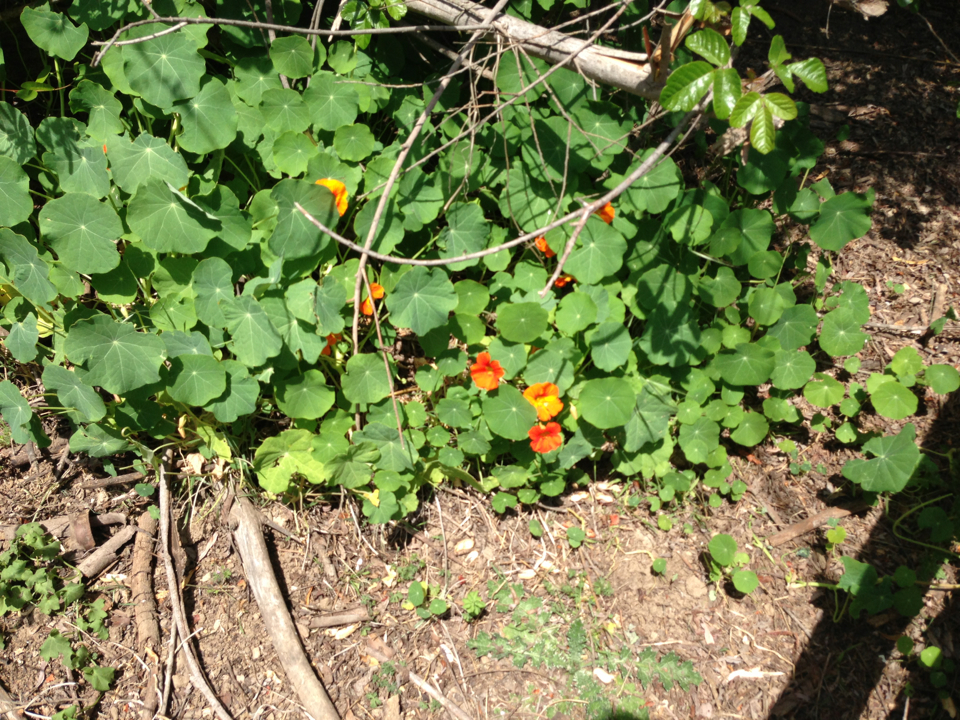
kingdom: Plantae
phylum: Tracheophyta
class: Magnoliopsida
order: Brassicales
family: Tropaeolaceae
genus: Tropaeolum
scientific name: Tropaeolum majus
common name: Nasturtium
